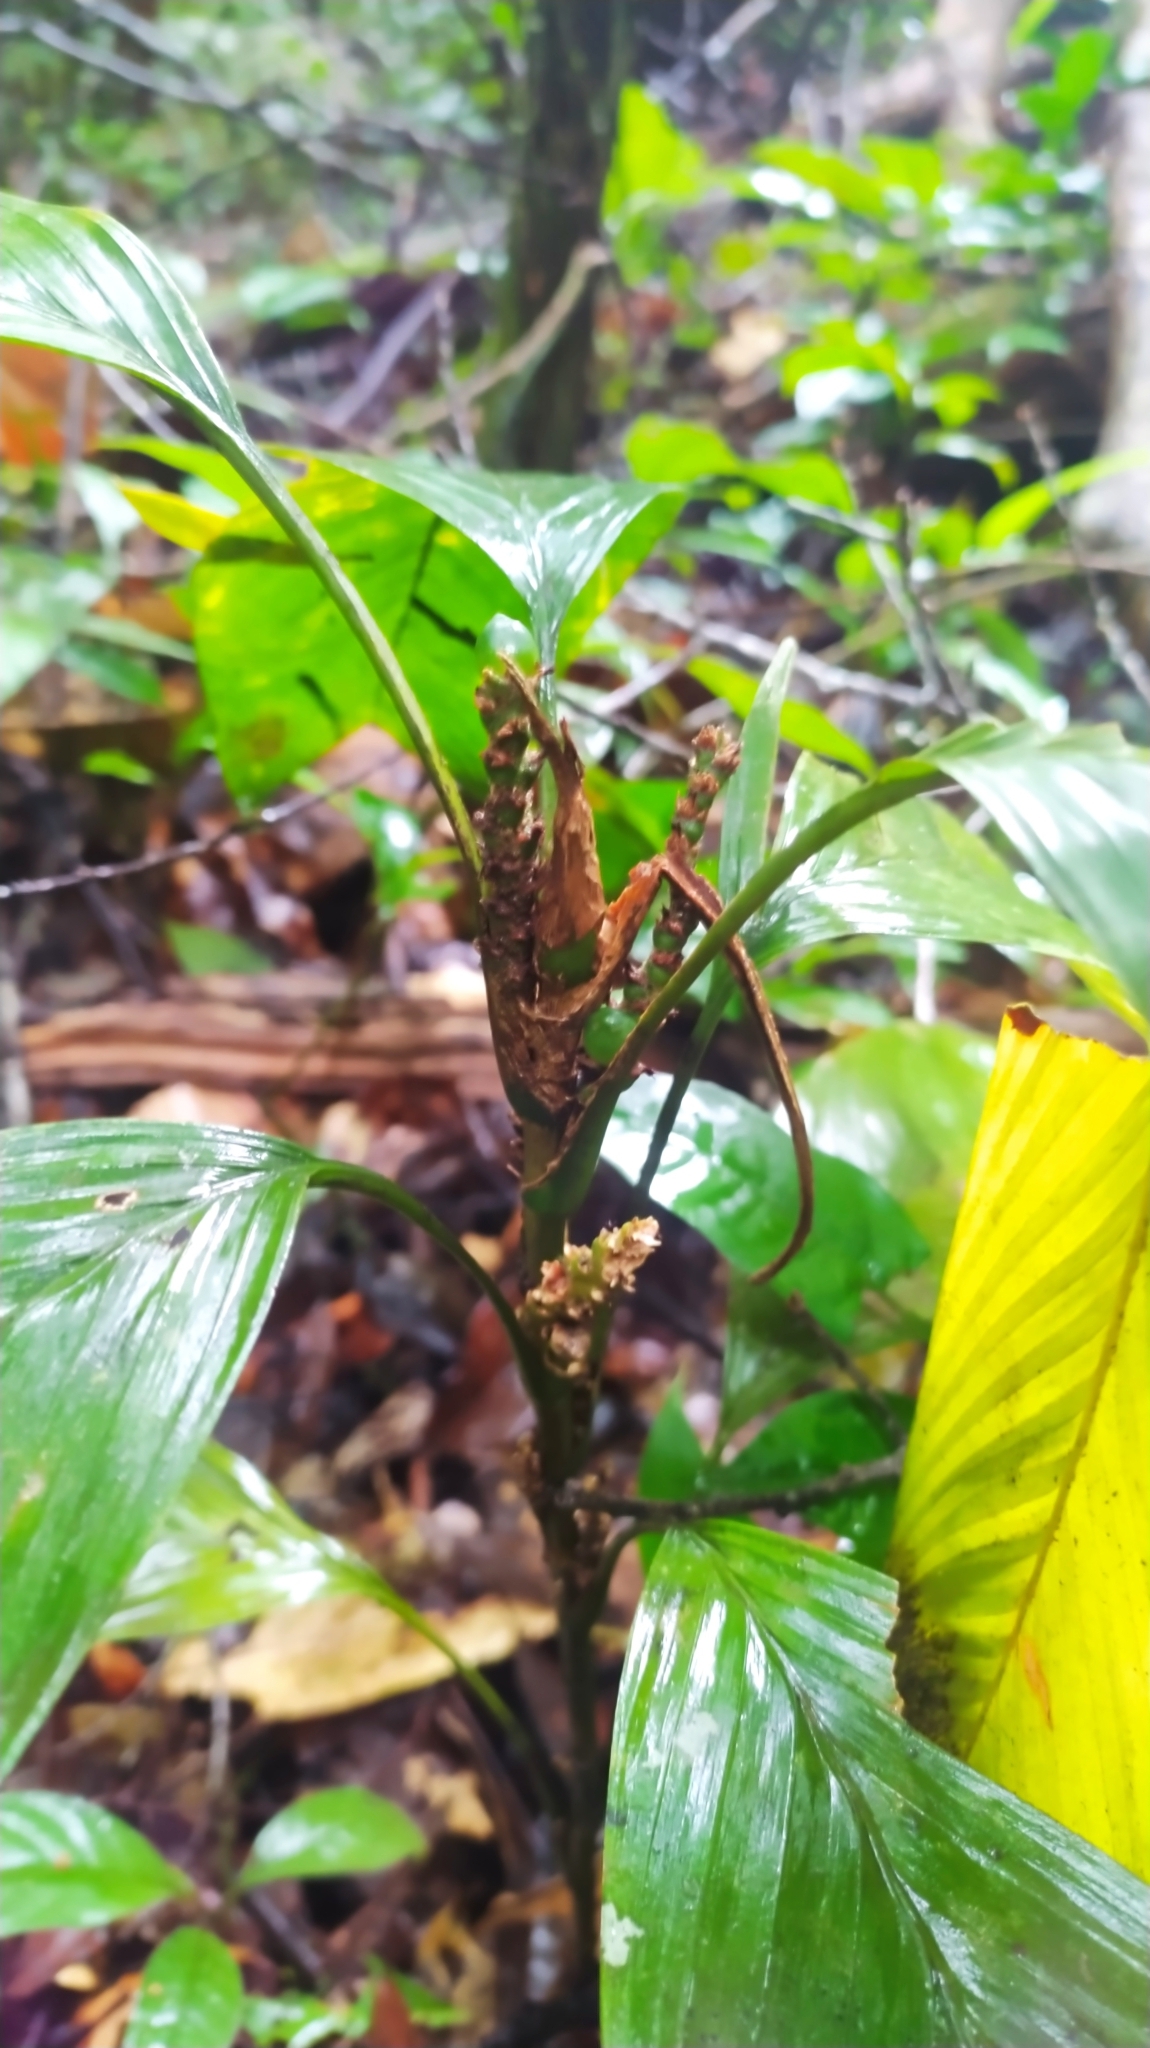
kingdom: Plantae
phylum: Tracheophyta
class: Liliopsida
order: Arecales
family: Arecaceae
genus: Geonoma
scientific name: Geonoma stricta
